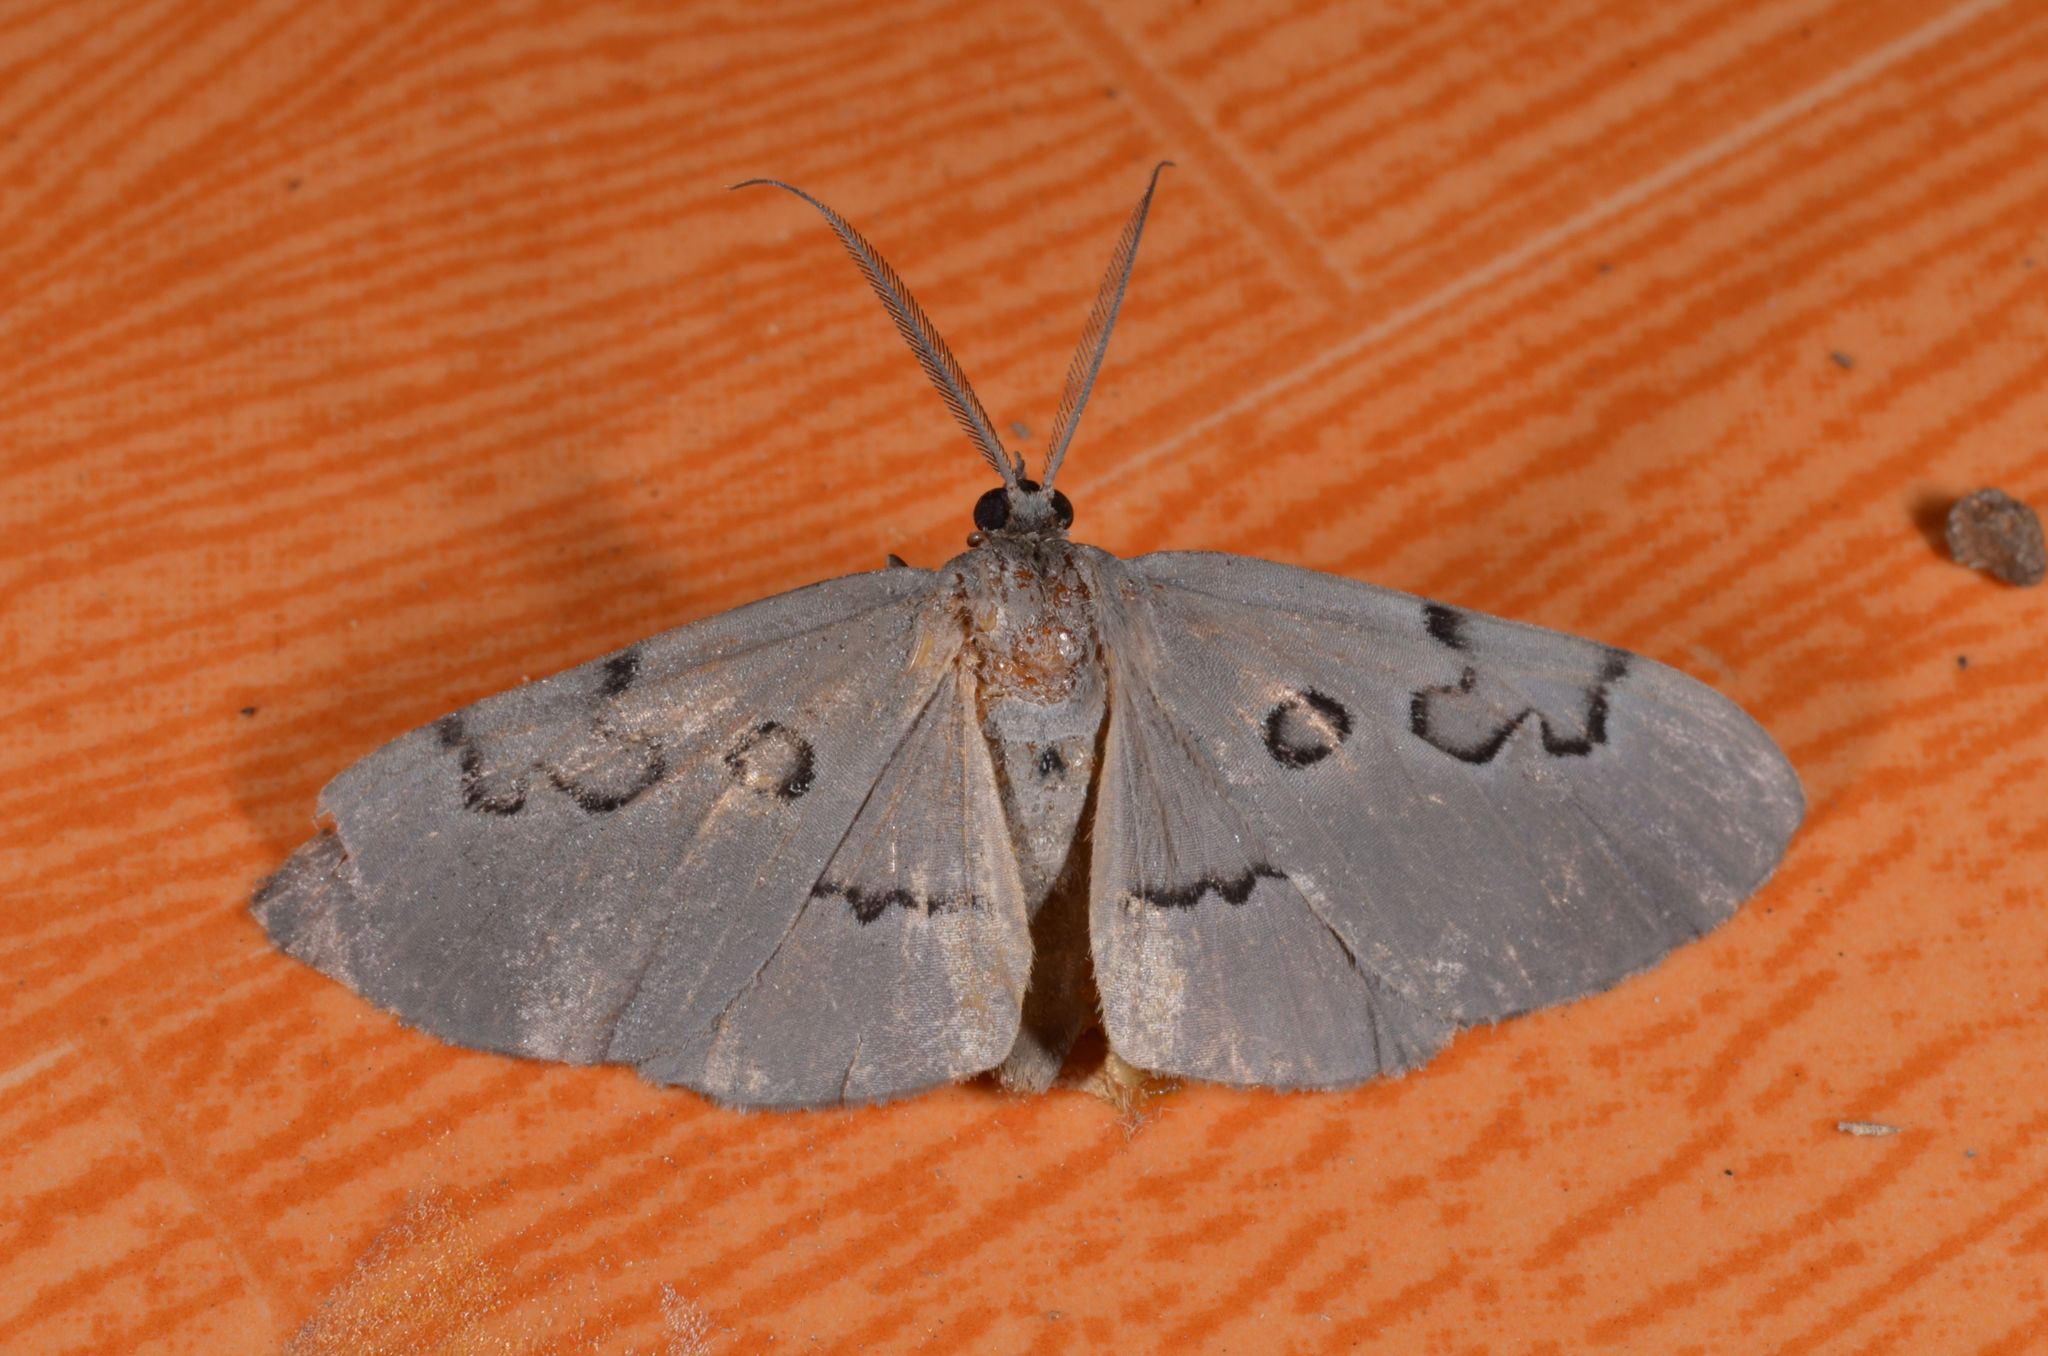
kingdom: Animalia
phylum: Arthropoda
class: Insecta
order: Lepidoptera
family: Geometridae
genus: Hypochrosis
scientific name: Hypochrosis subrufa
